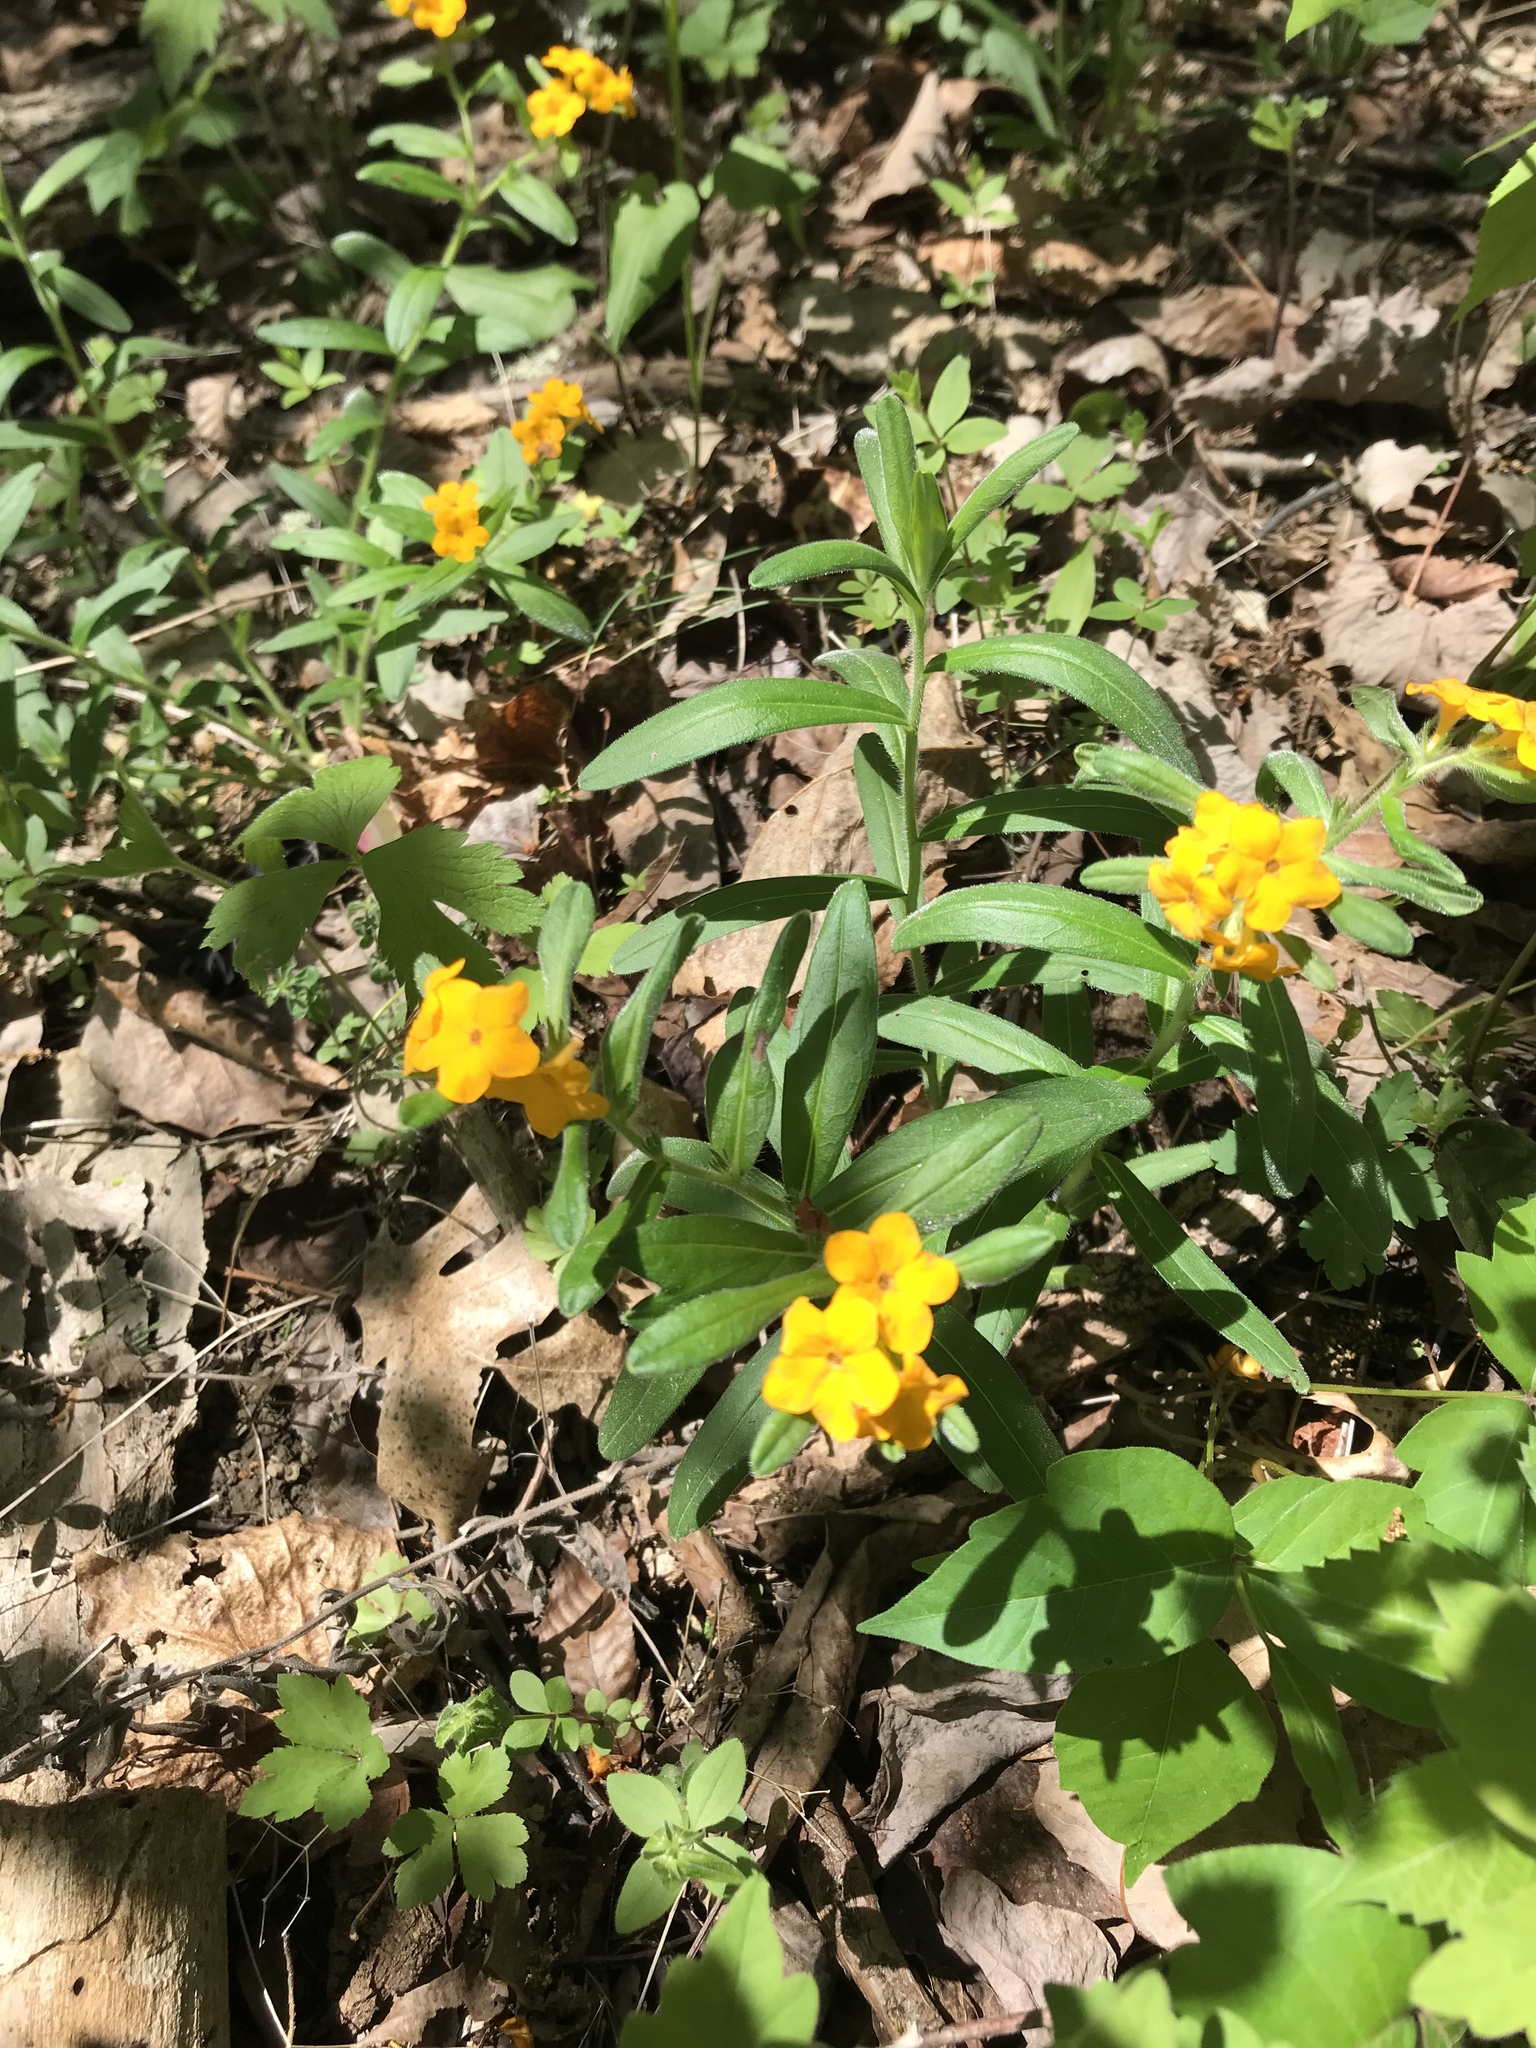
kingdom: Plantae
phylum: Tracheophyta
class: Magnoliopsida
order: Boraginales
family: Boraginaceae
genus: Lithospermum
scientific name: Lithospermum canescens
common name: Hoary puccoon
